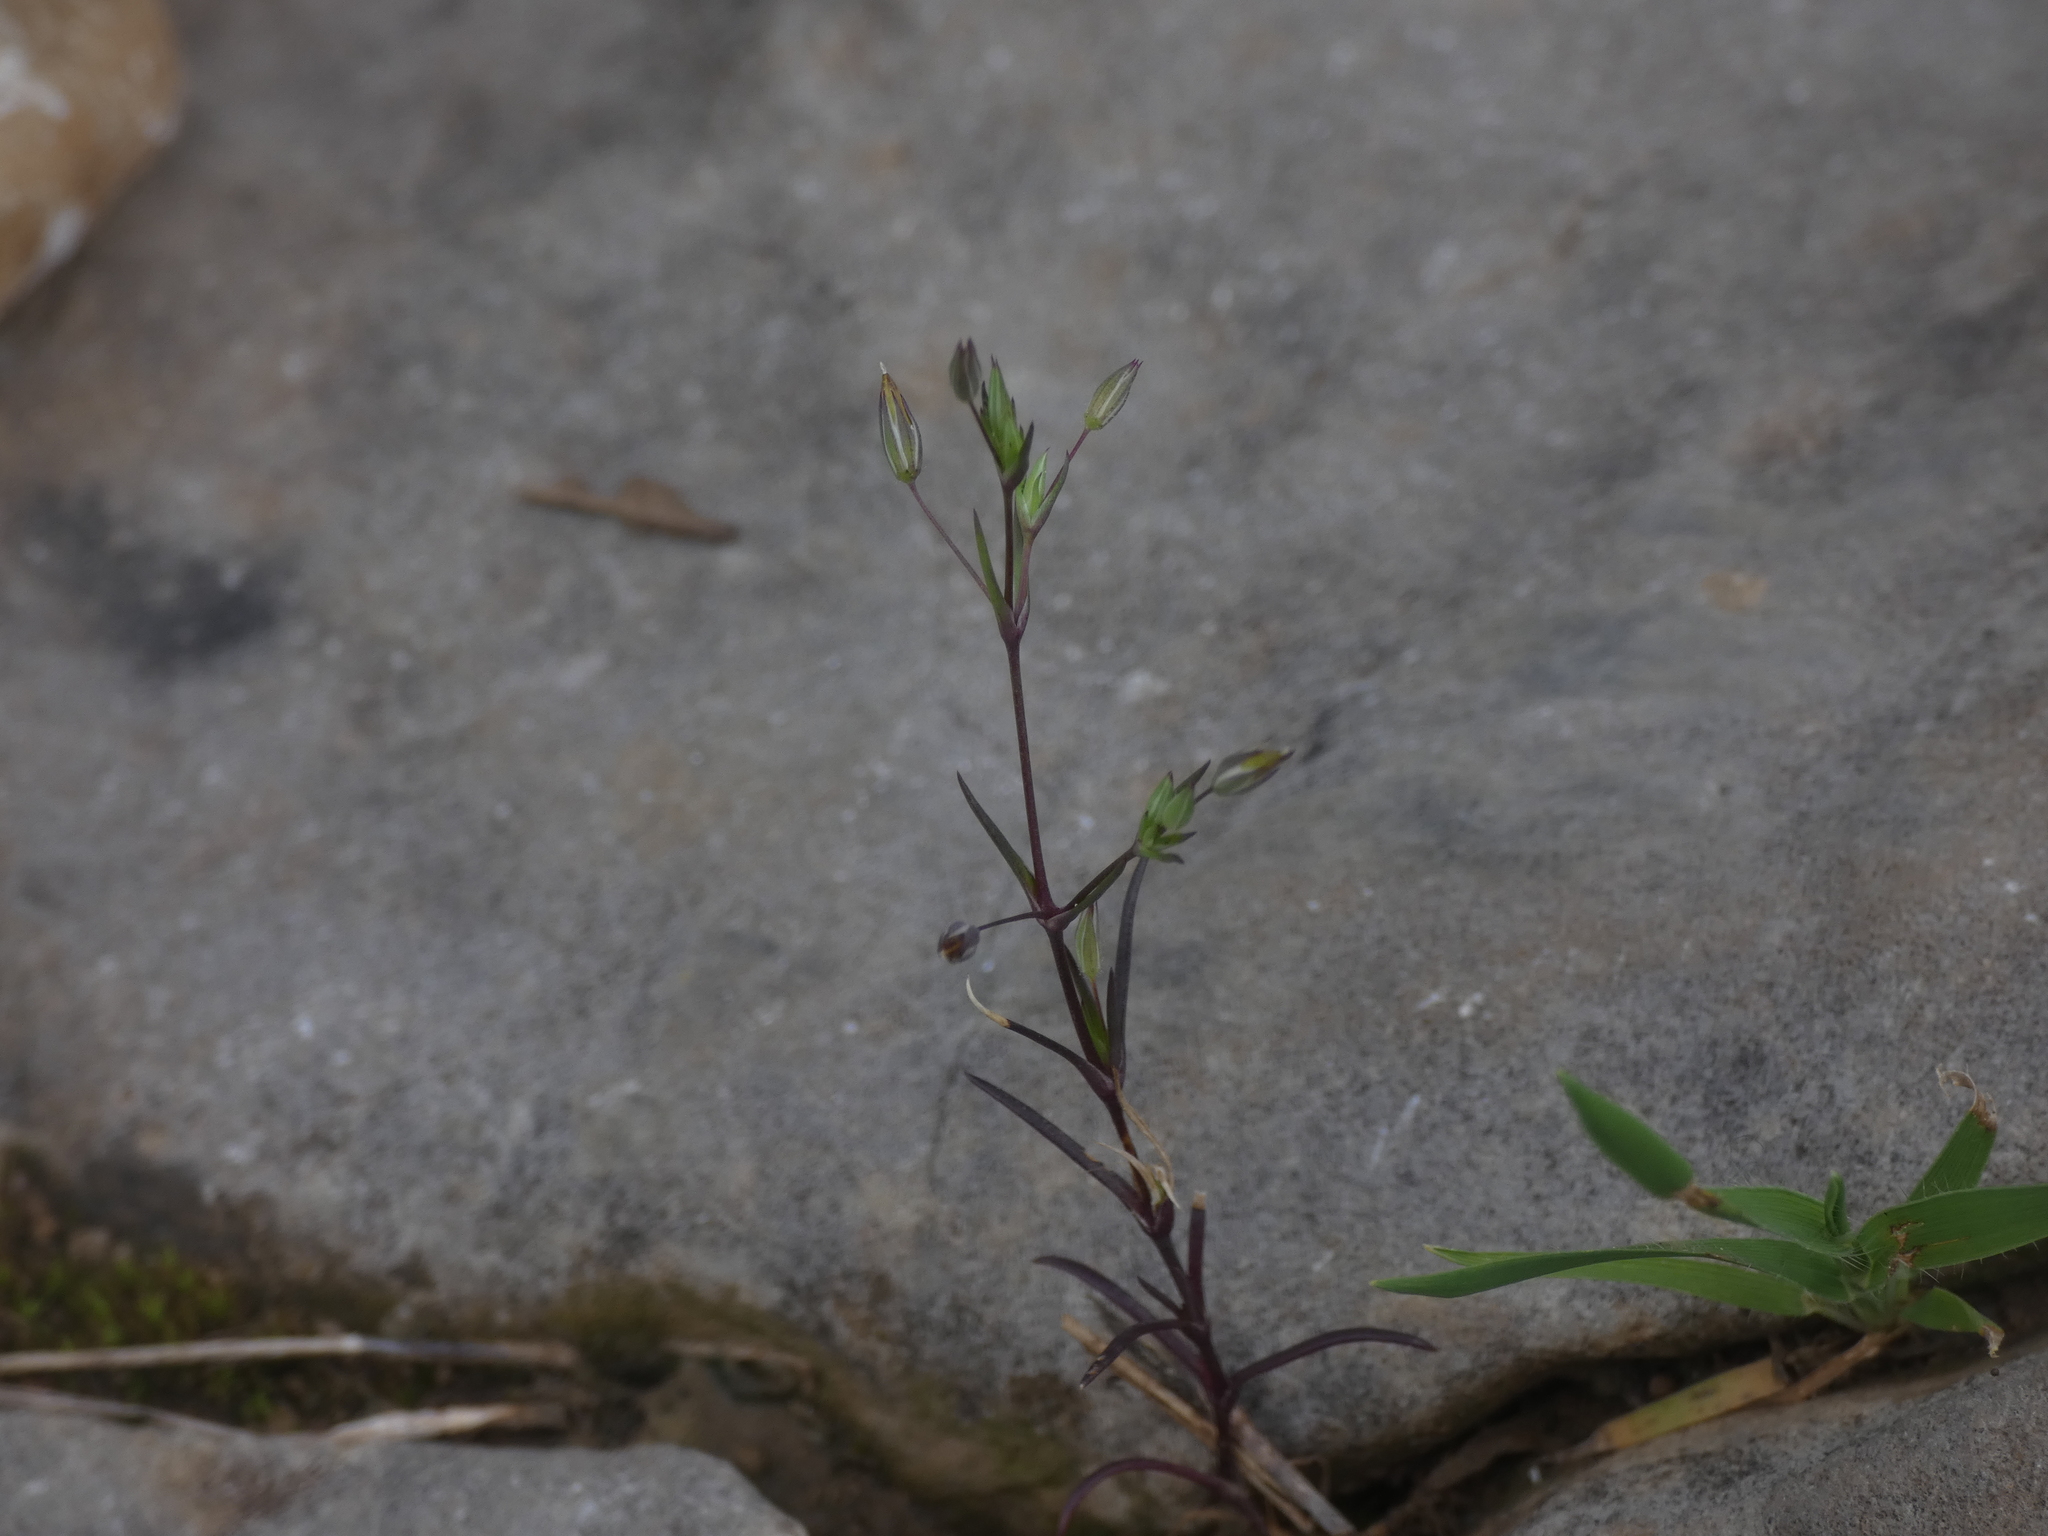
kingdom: Plantae
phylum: Tracheophyta
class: Magnoliopsida
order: Caryophyllales
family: Caryophyllaceae
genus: Sabulina
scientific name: Sabulina tenuifolia
